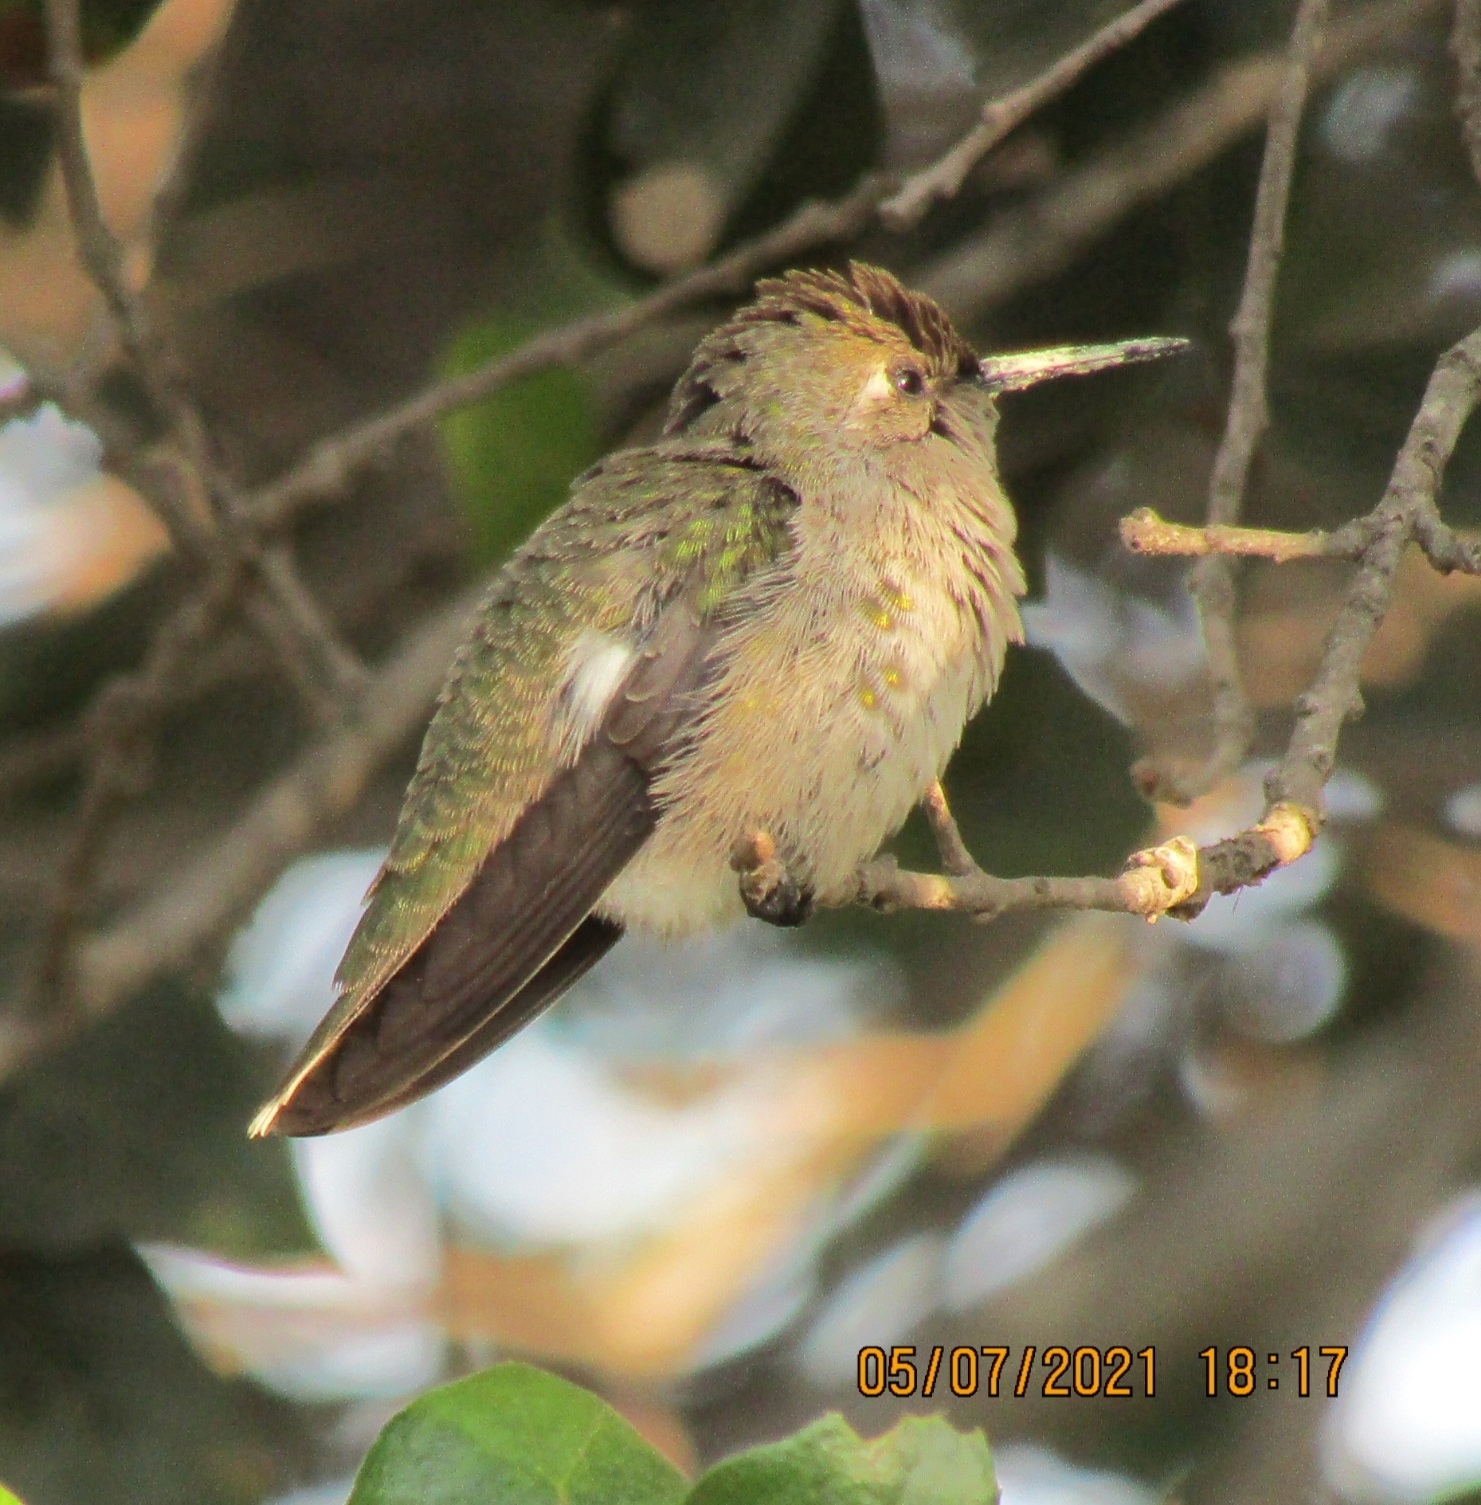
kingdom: Animalia
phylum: Chordata
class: Aves
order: Apodiformes
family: Trochilidae
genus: Calypte
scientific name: Calypte anna
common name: Anna's hummingbird
